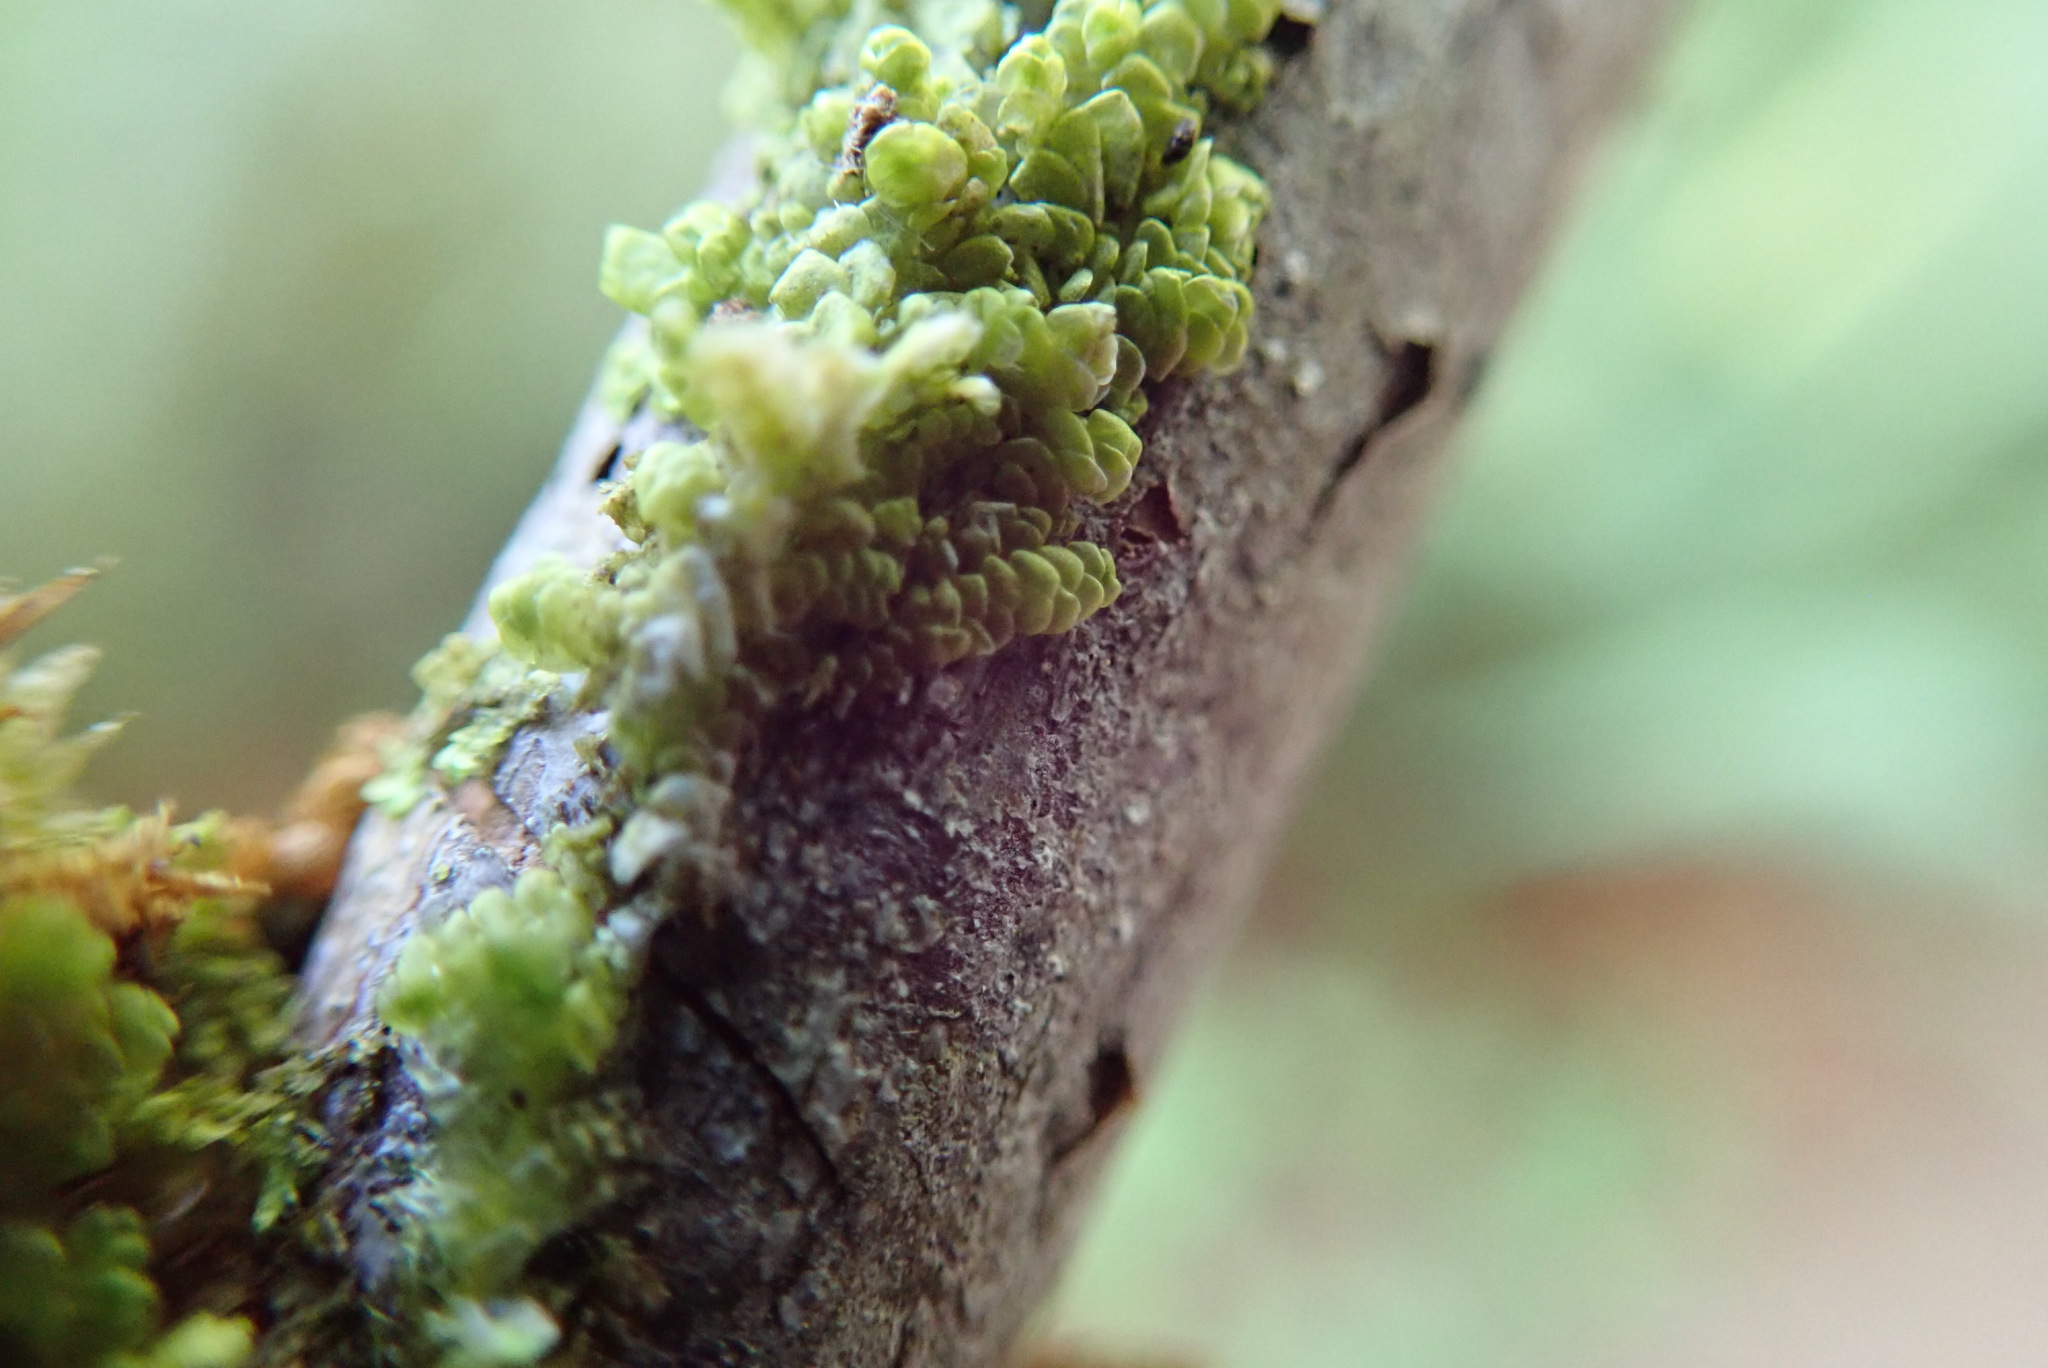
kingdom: Plantae
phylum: Marchantiophyta
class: Jungermanniopsida
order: Porellales
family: Radulaceae
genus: Radula
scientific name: Radula complanata
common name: Flat-leaved scalewort
